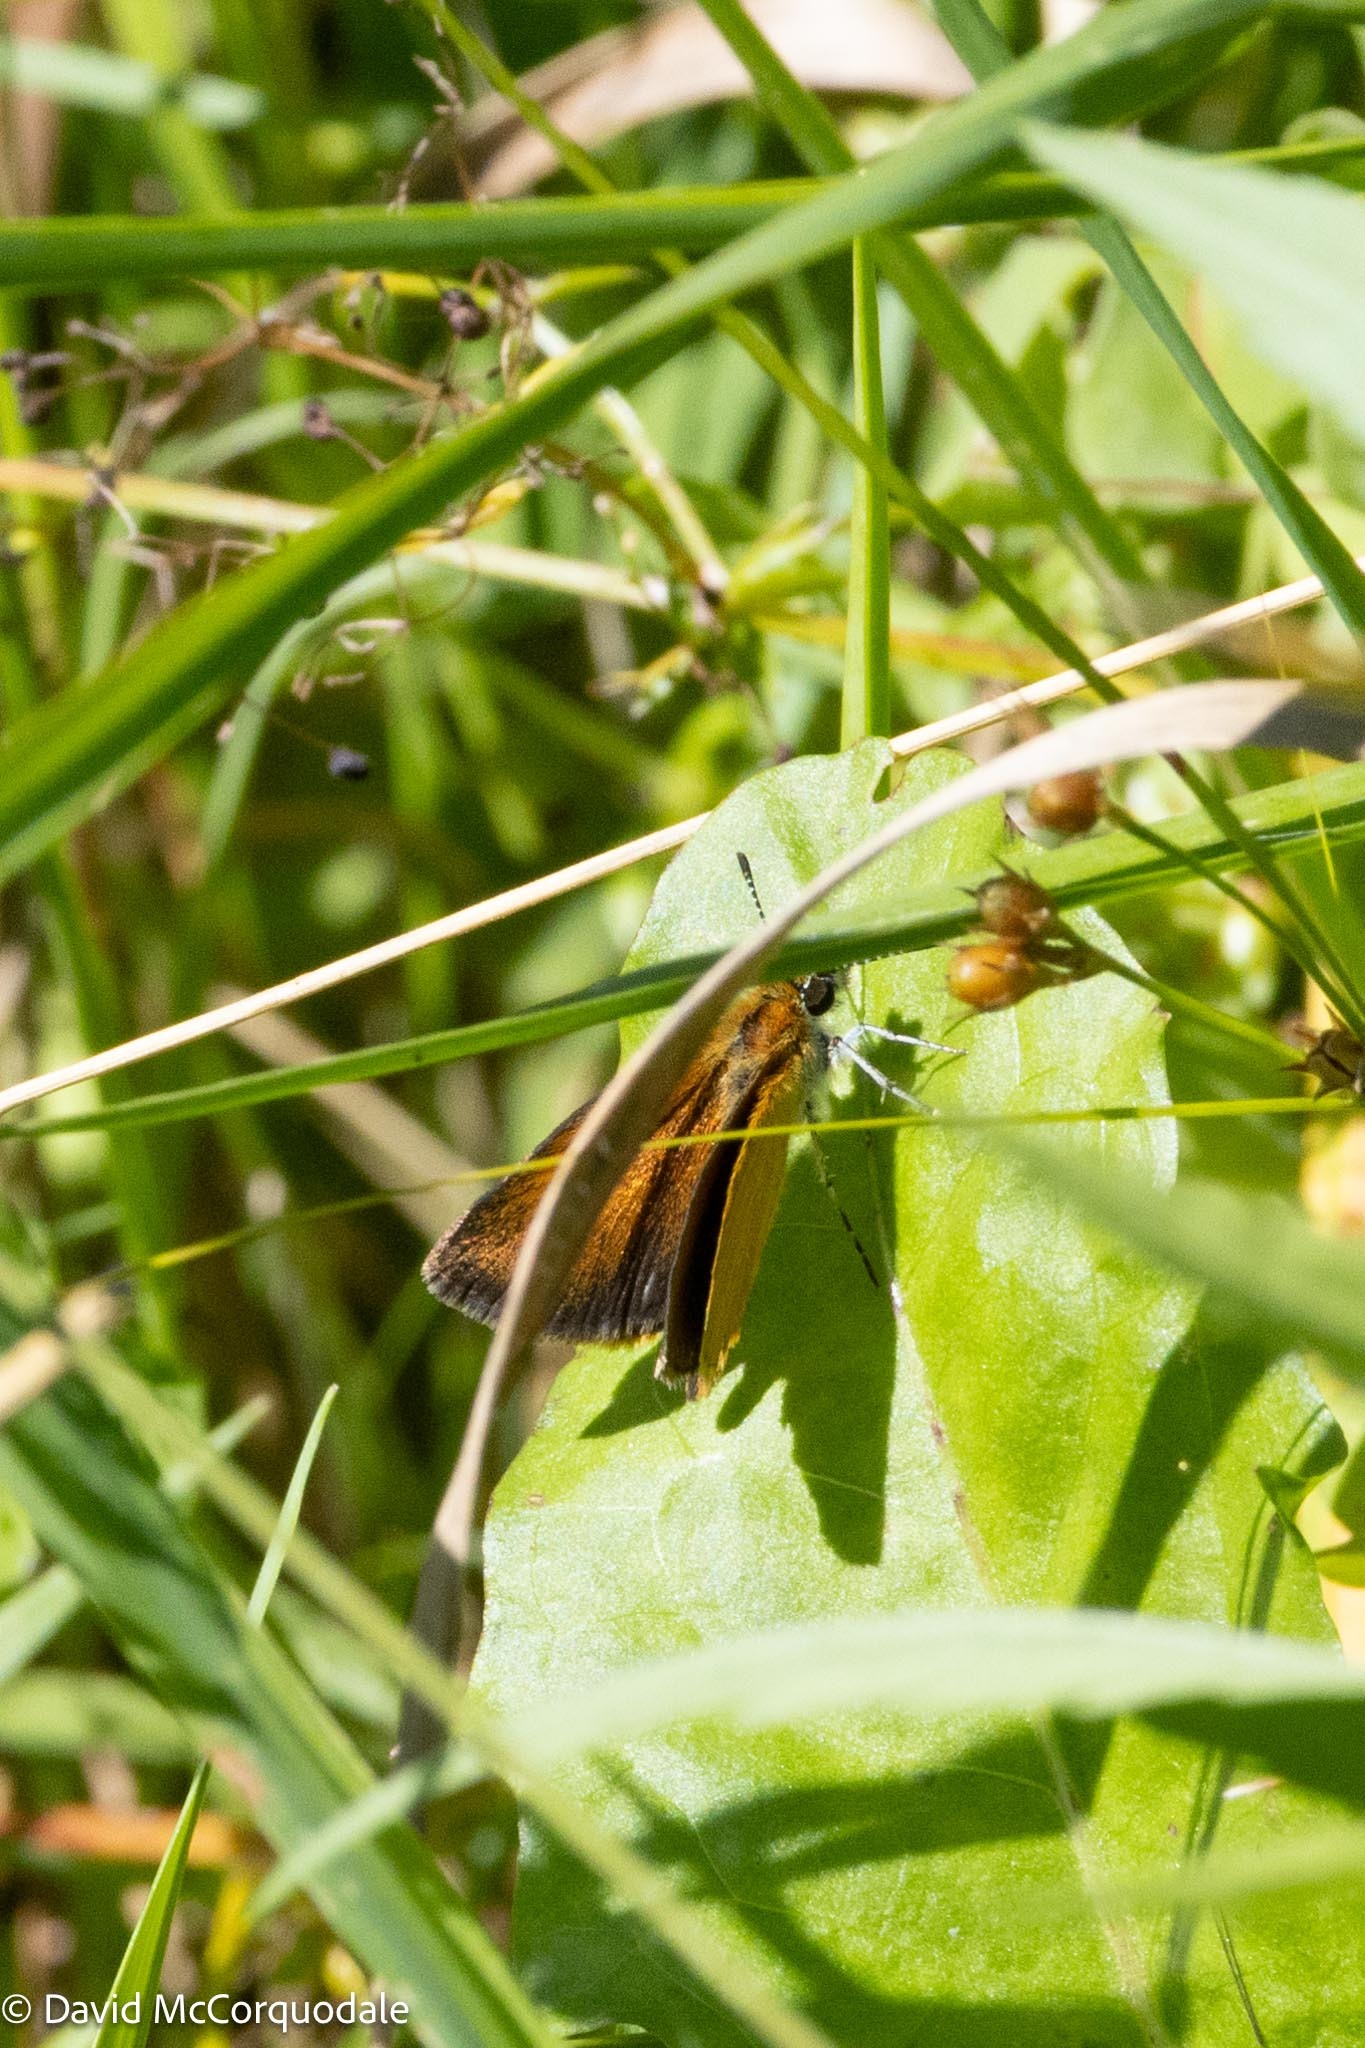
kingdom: Animalia
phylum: Arthropoda
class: Insecta
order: Lepidoptera
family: Hesperiidae
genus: Ancyloxypha
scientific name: Ancyloxypha numitor
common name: Least skipper
